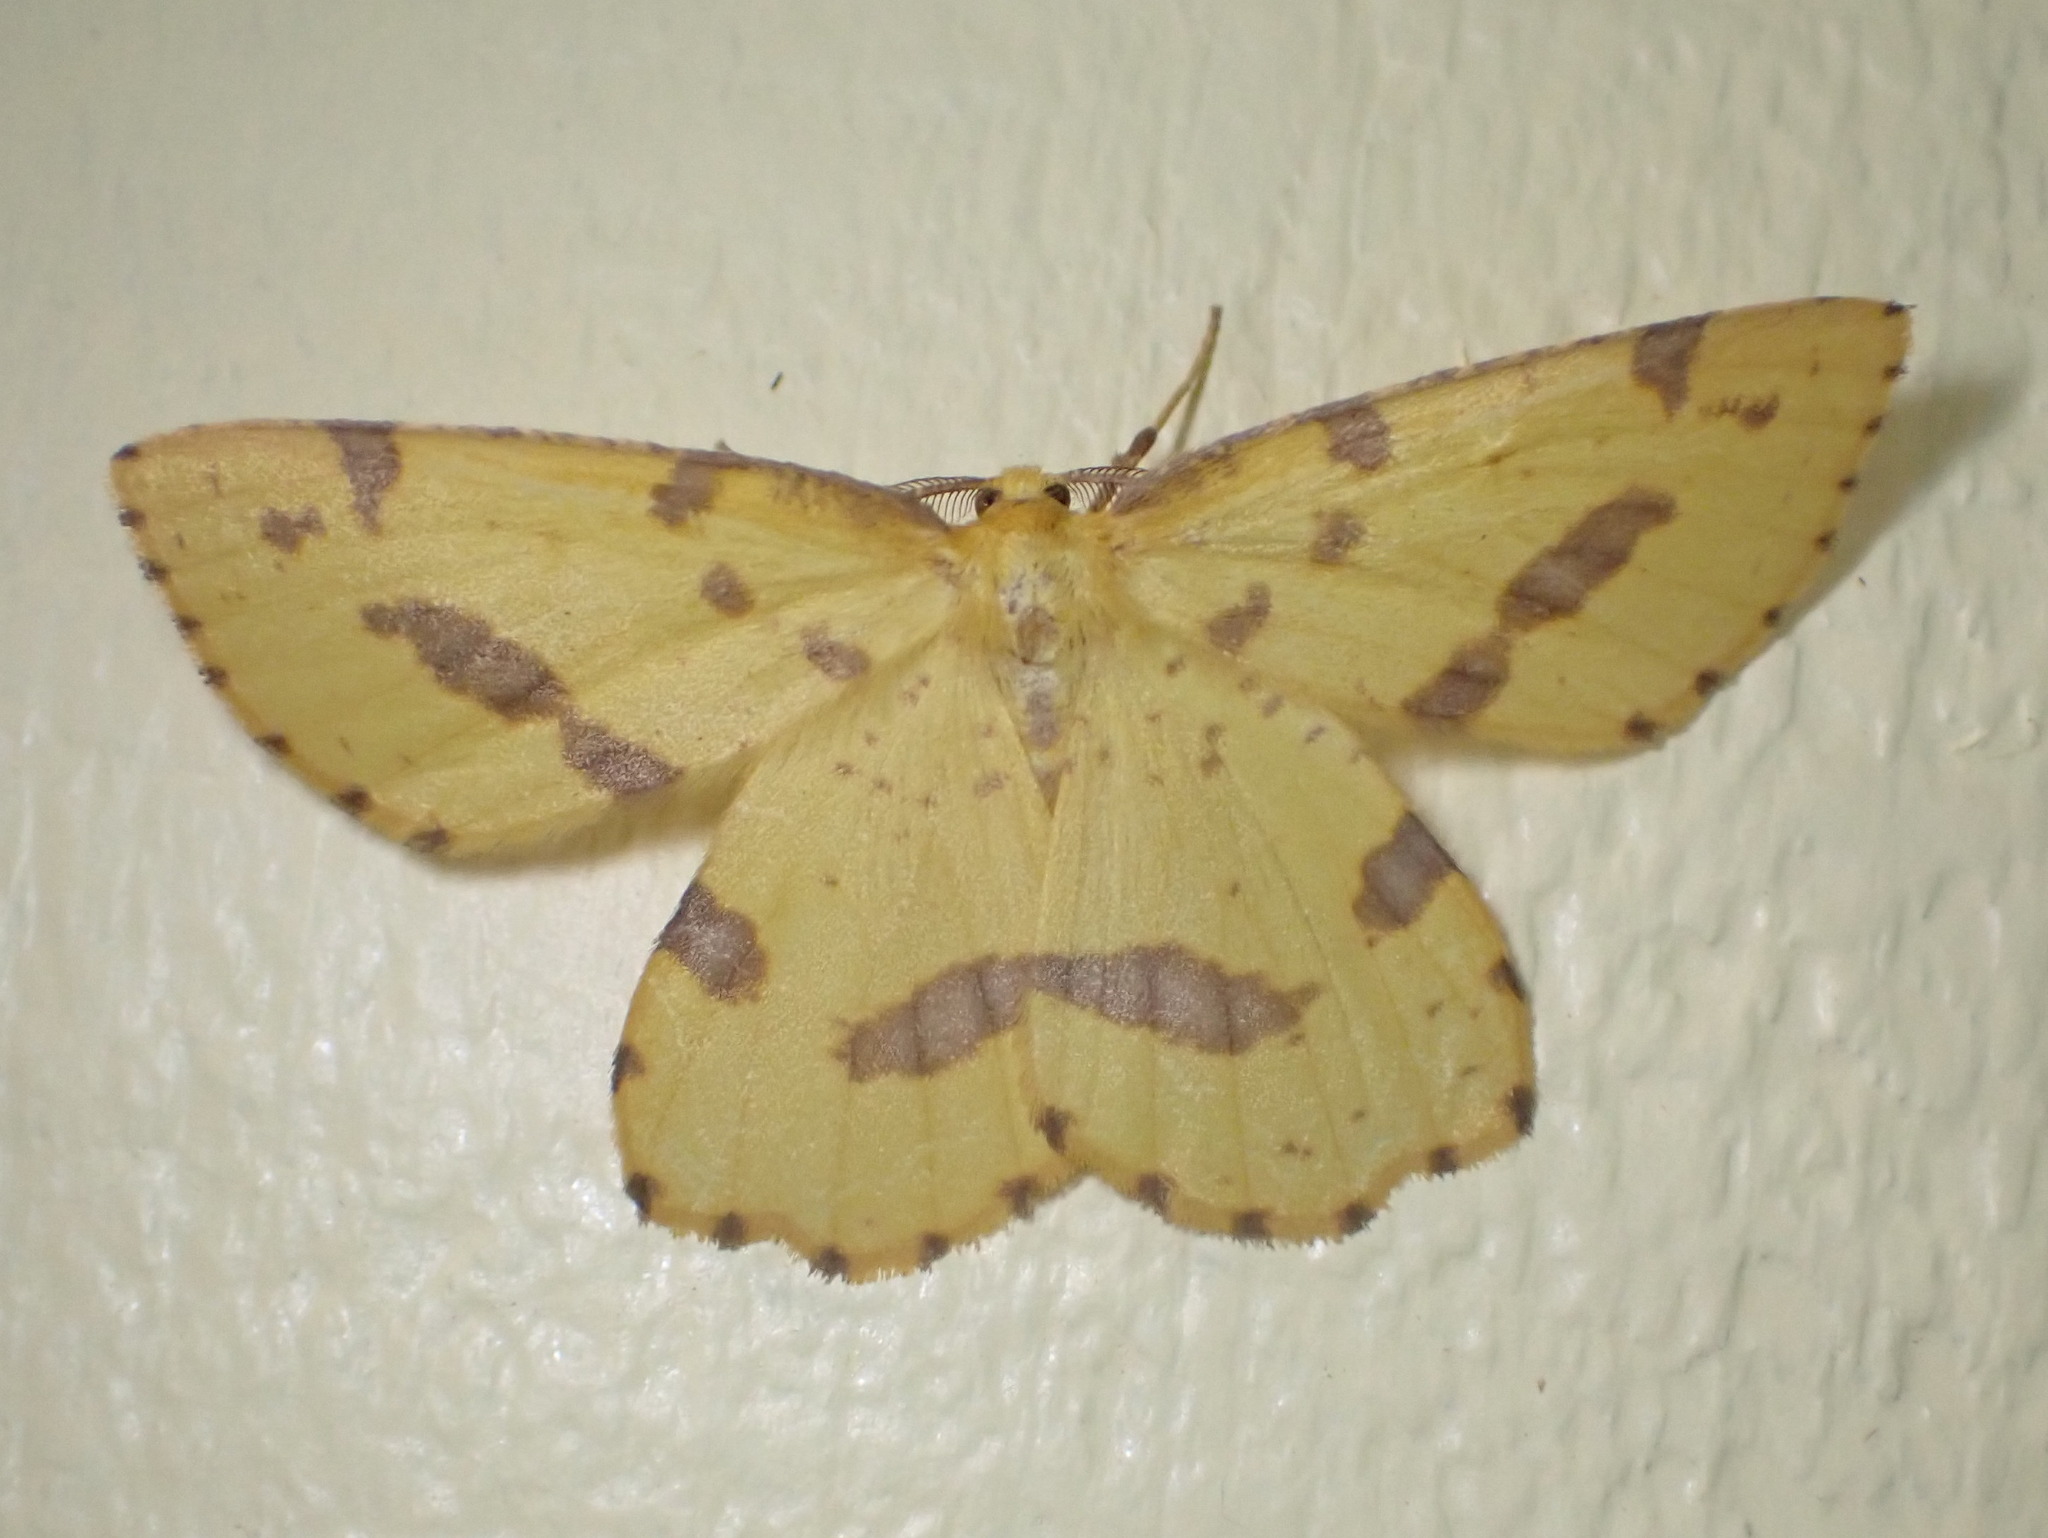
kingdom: Animalia
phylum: Arthropoda
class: Insecta
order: Lepidoptera
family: Geometridae
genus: Xanthotype
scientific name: Xanthotype
